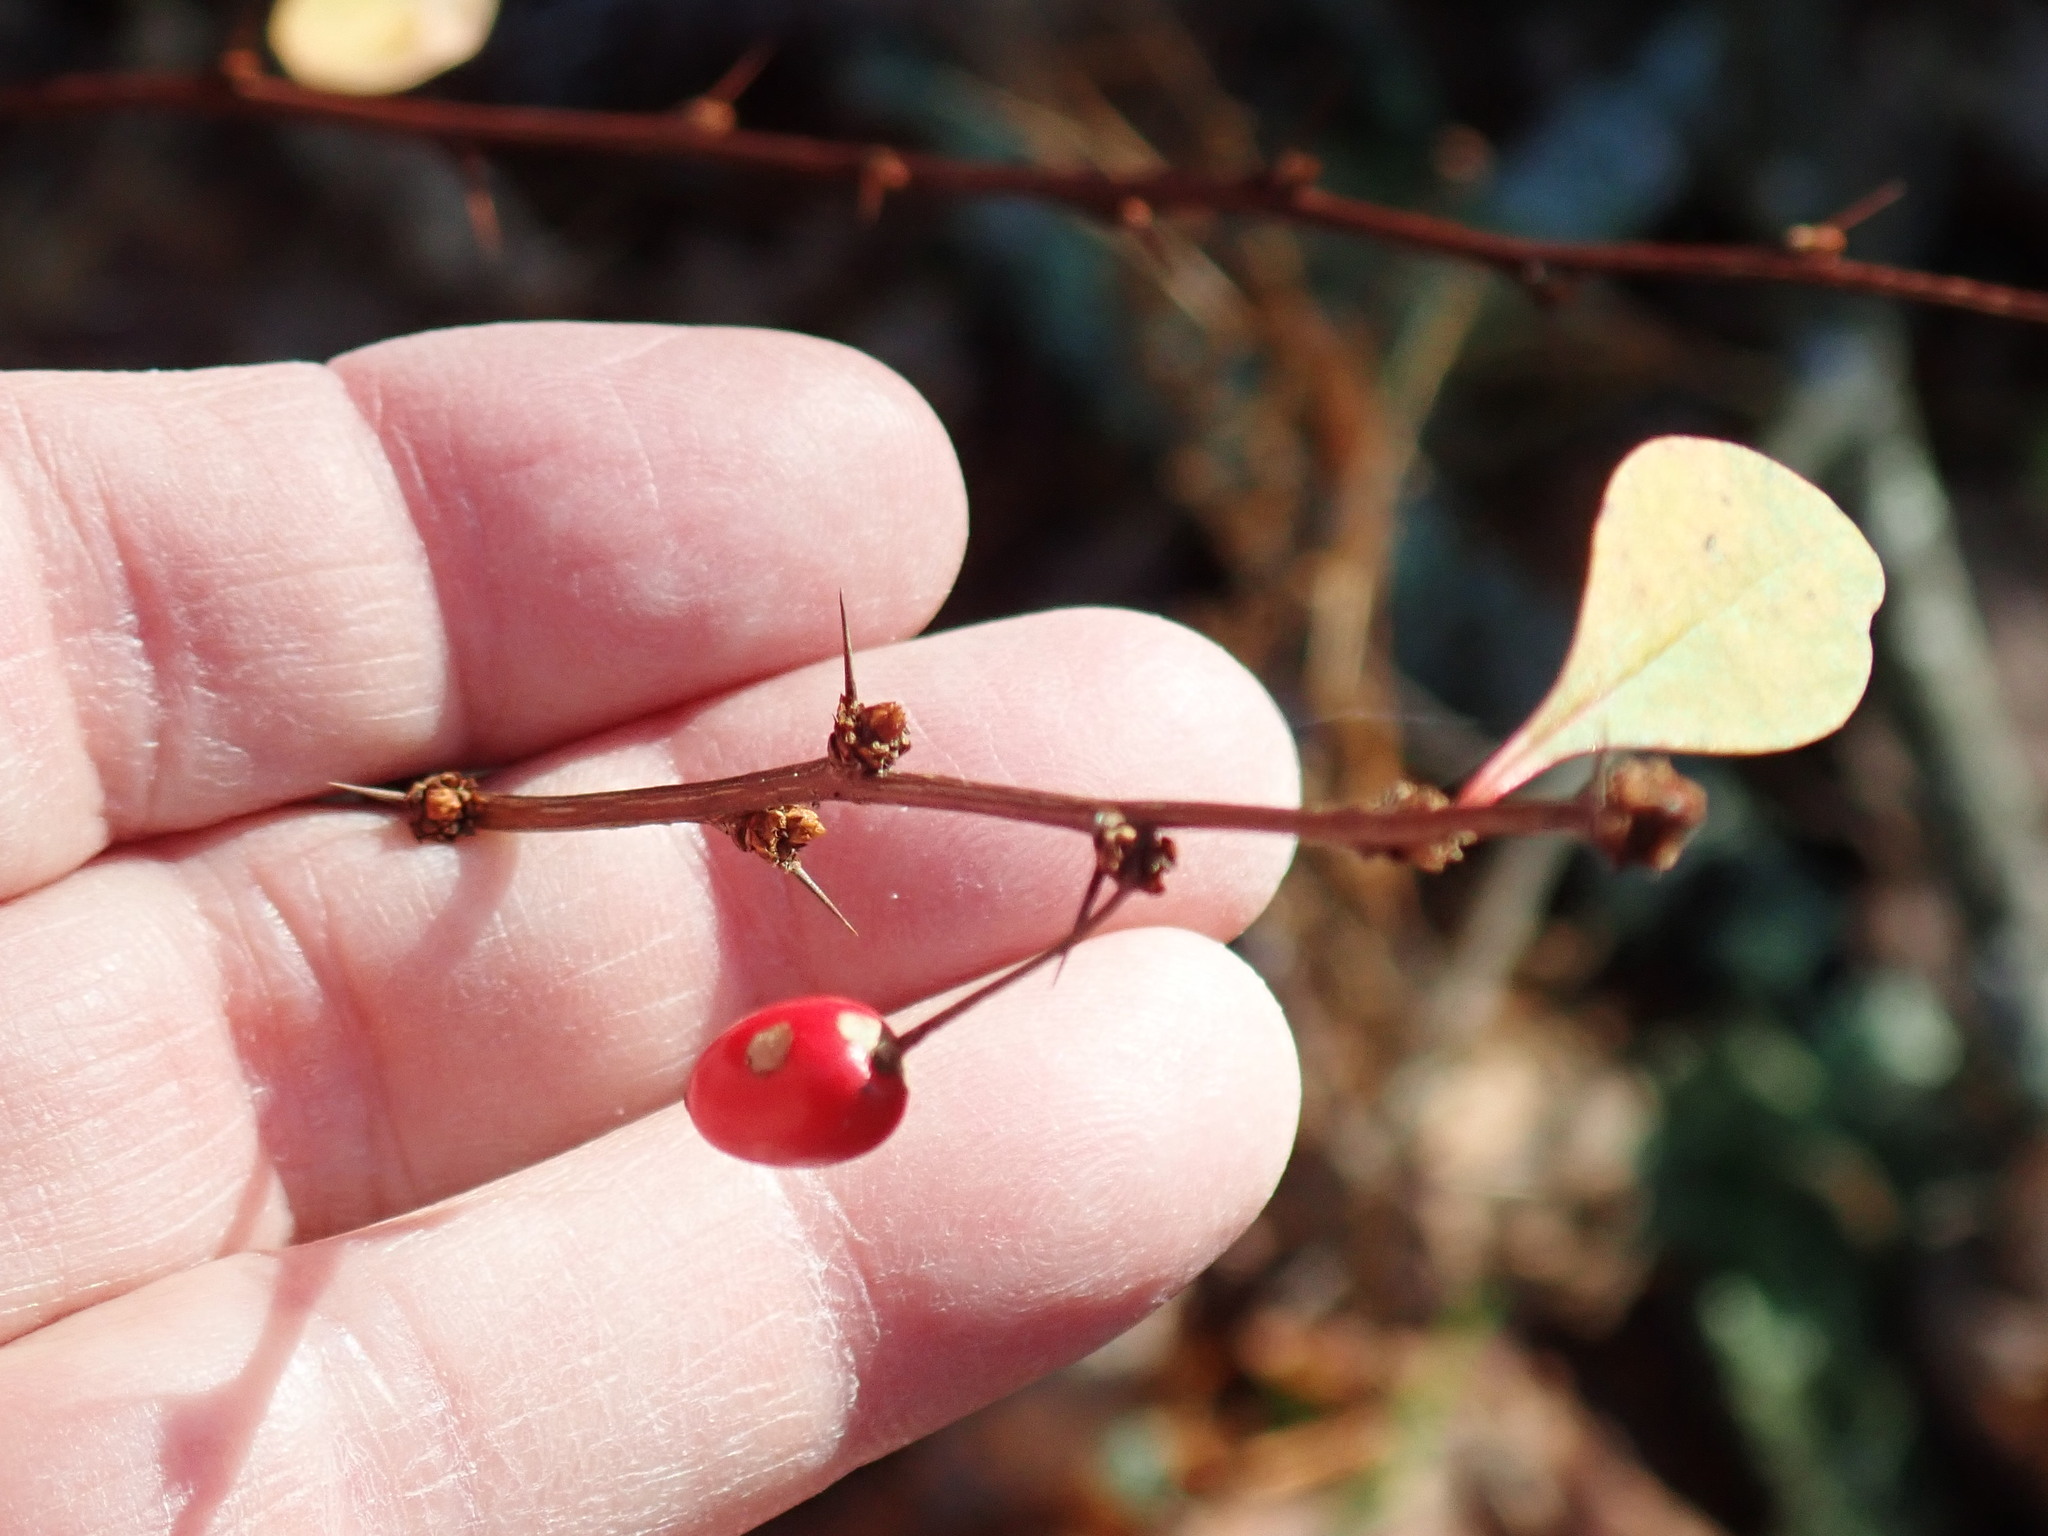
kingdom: Plantae
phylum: Tracheophyta
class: Magnoliopsida
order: Ranunculales
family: Berberidaceae
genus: Berberis
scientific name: Berberis thunbergii
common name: Japanese barberry
